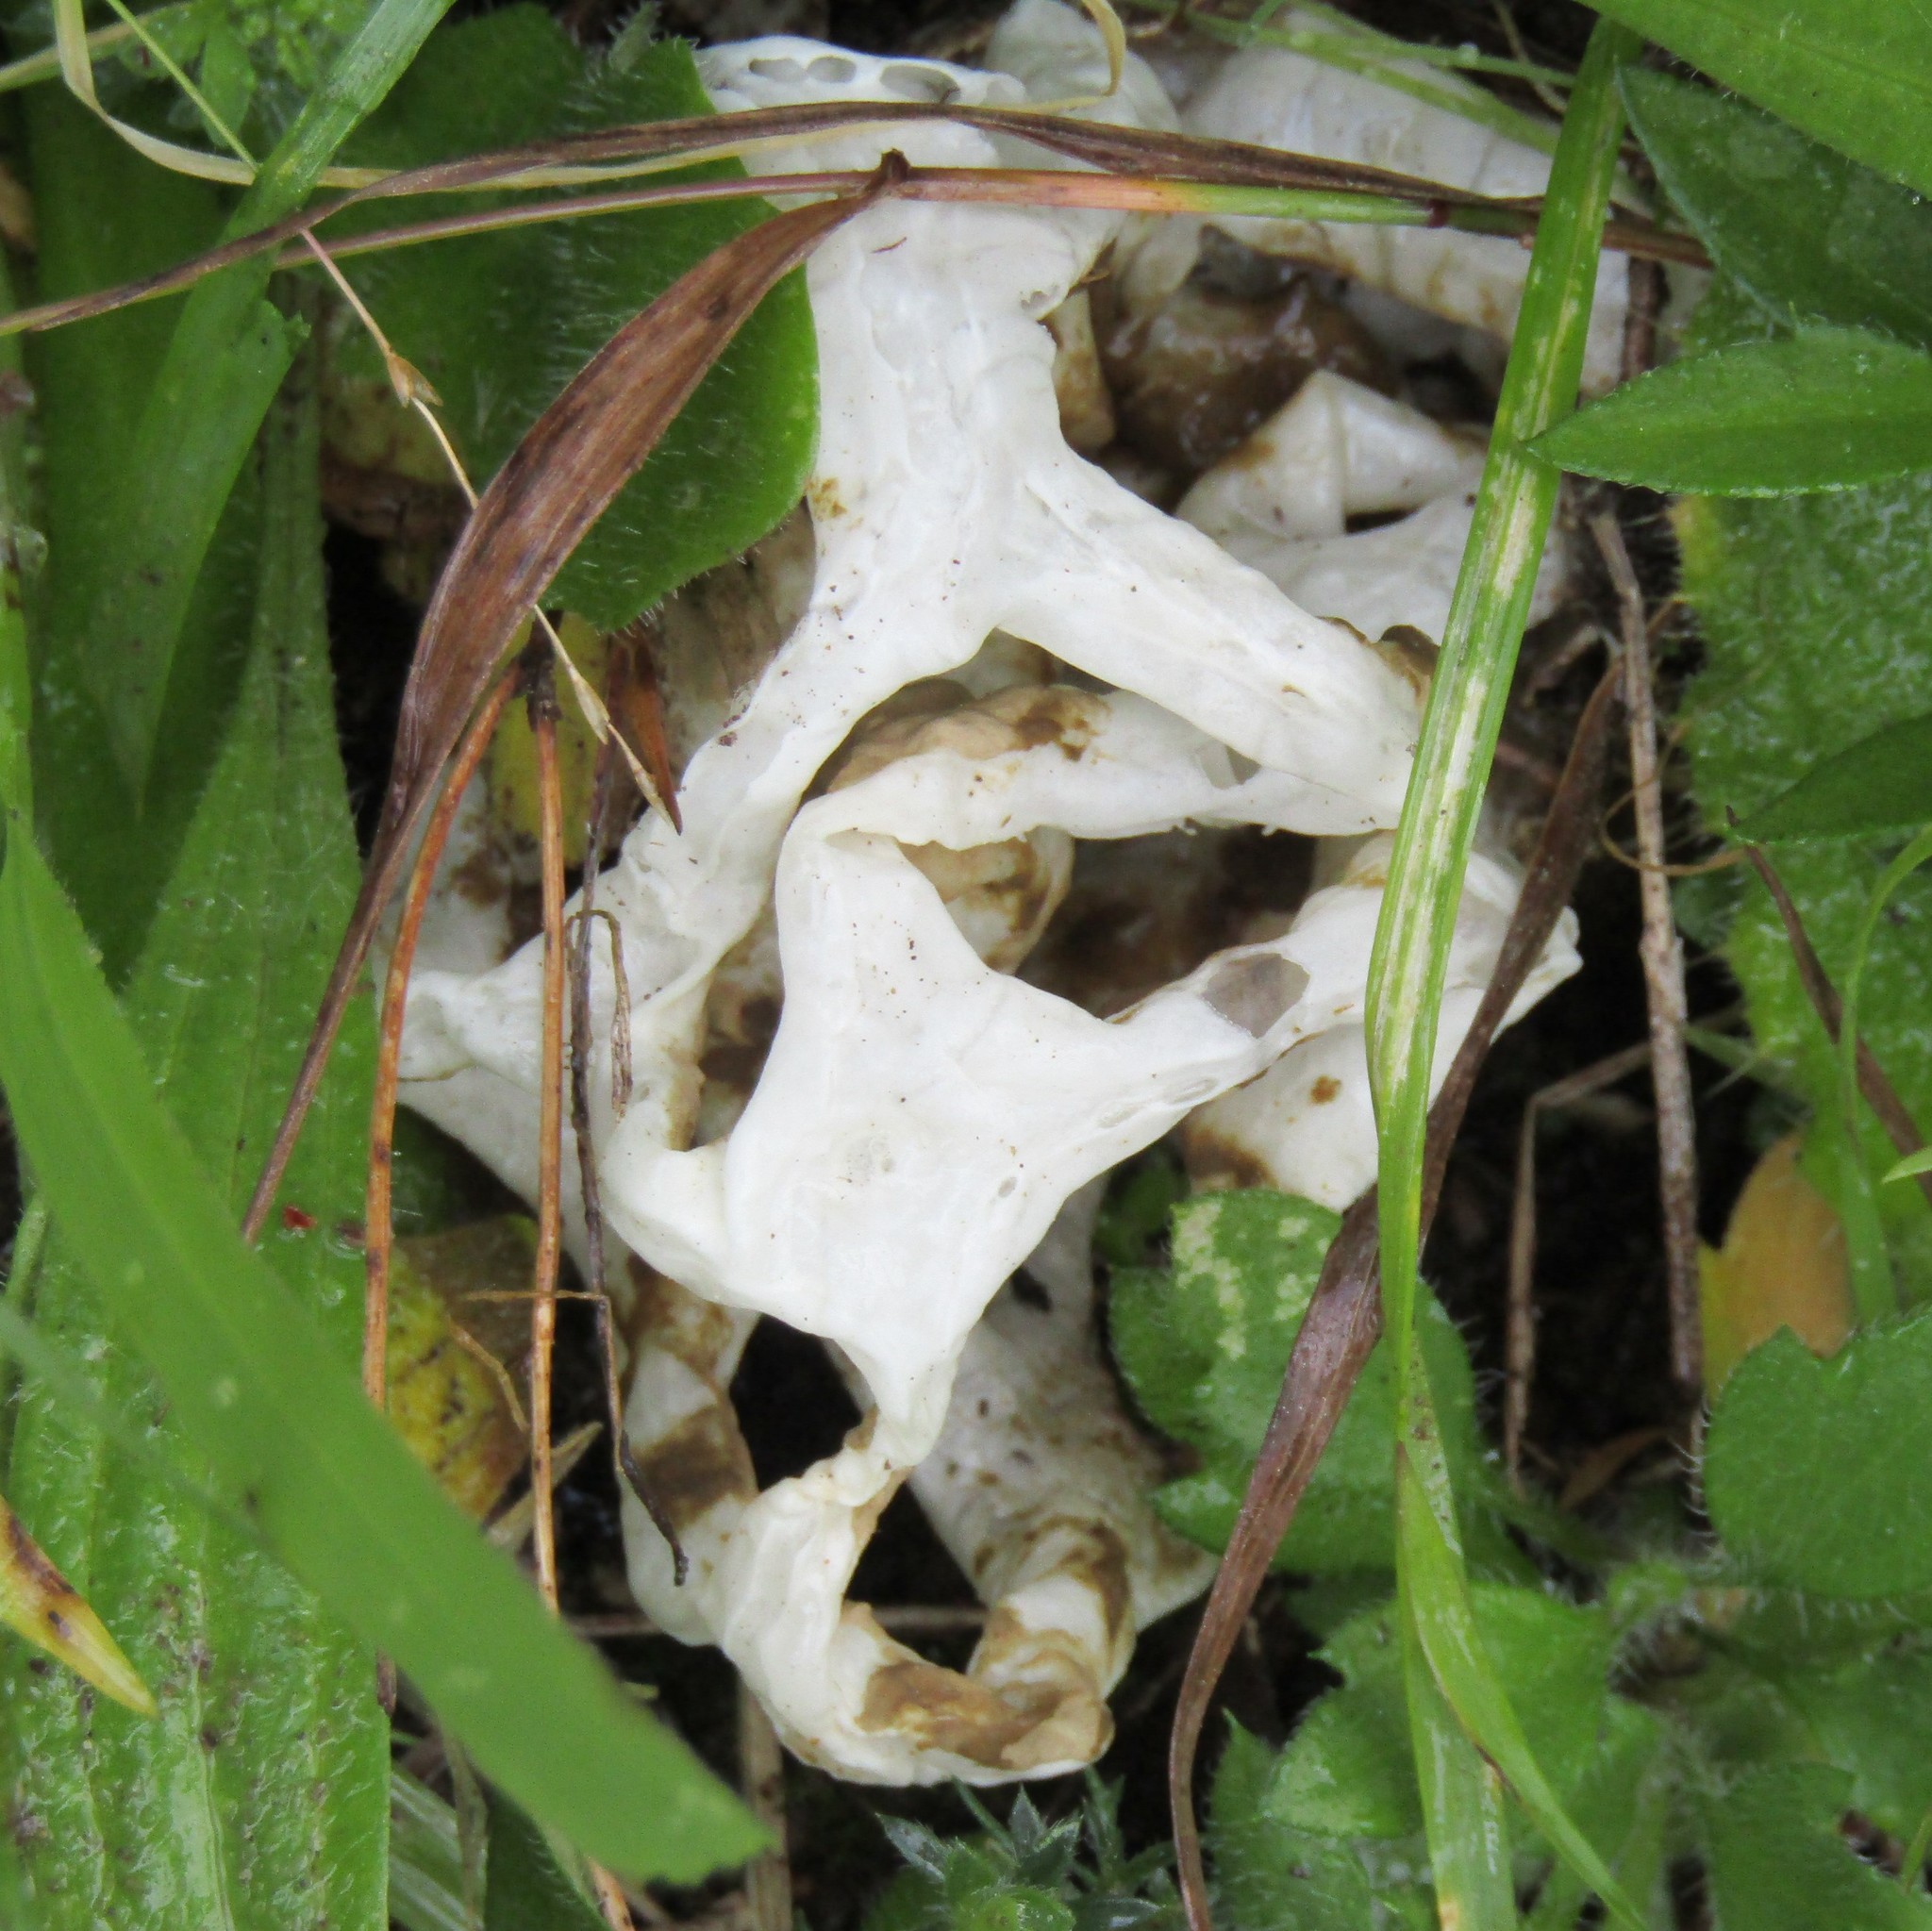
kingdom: Fungi
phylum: Basidiomycota
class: Agaricomycetes
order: Phallales
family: Phallaceae
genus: Ileodictyon
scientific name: Ileodictyon cibarium
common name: Basket fungus
